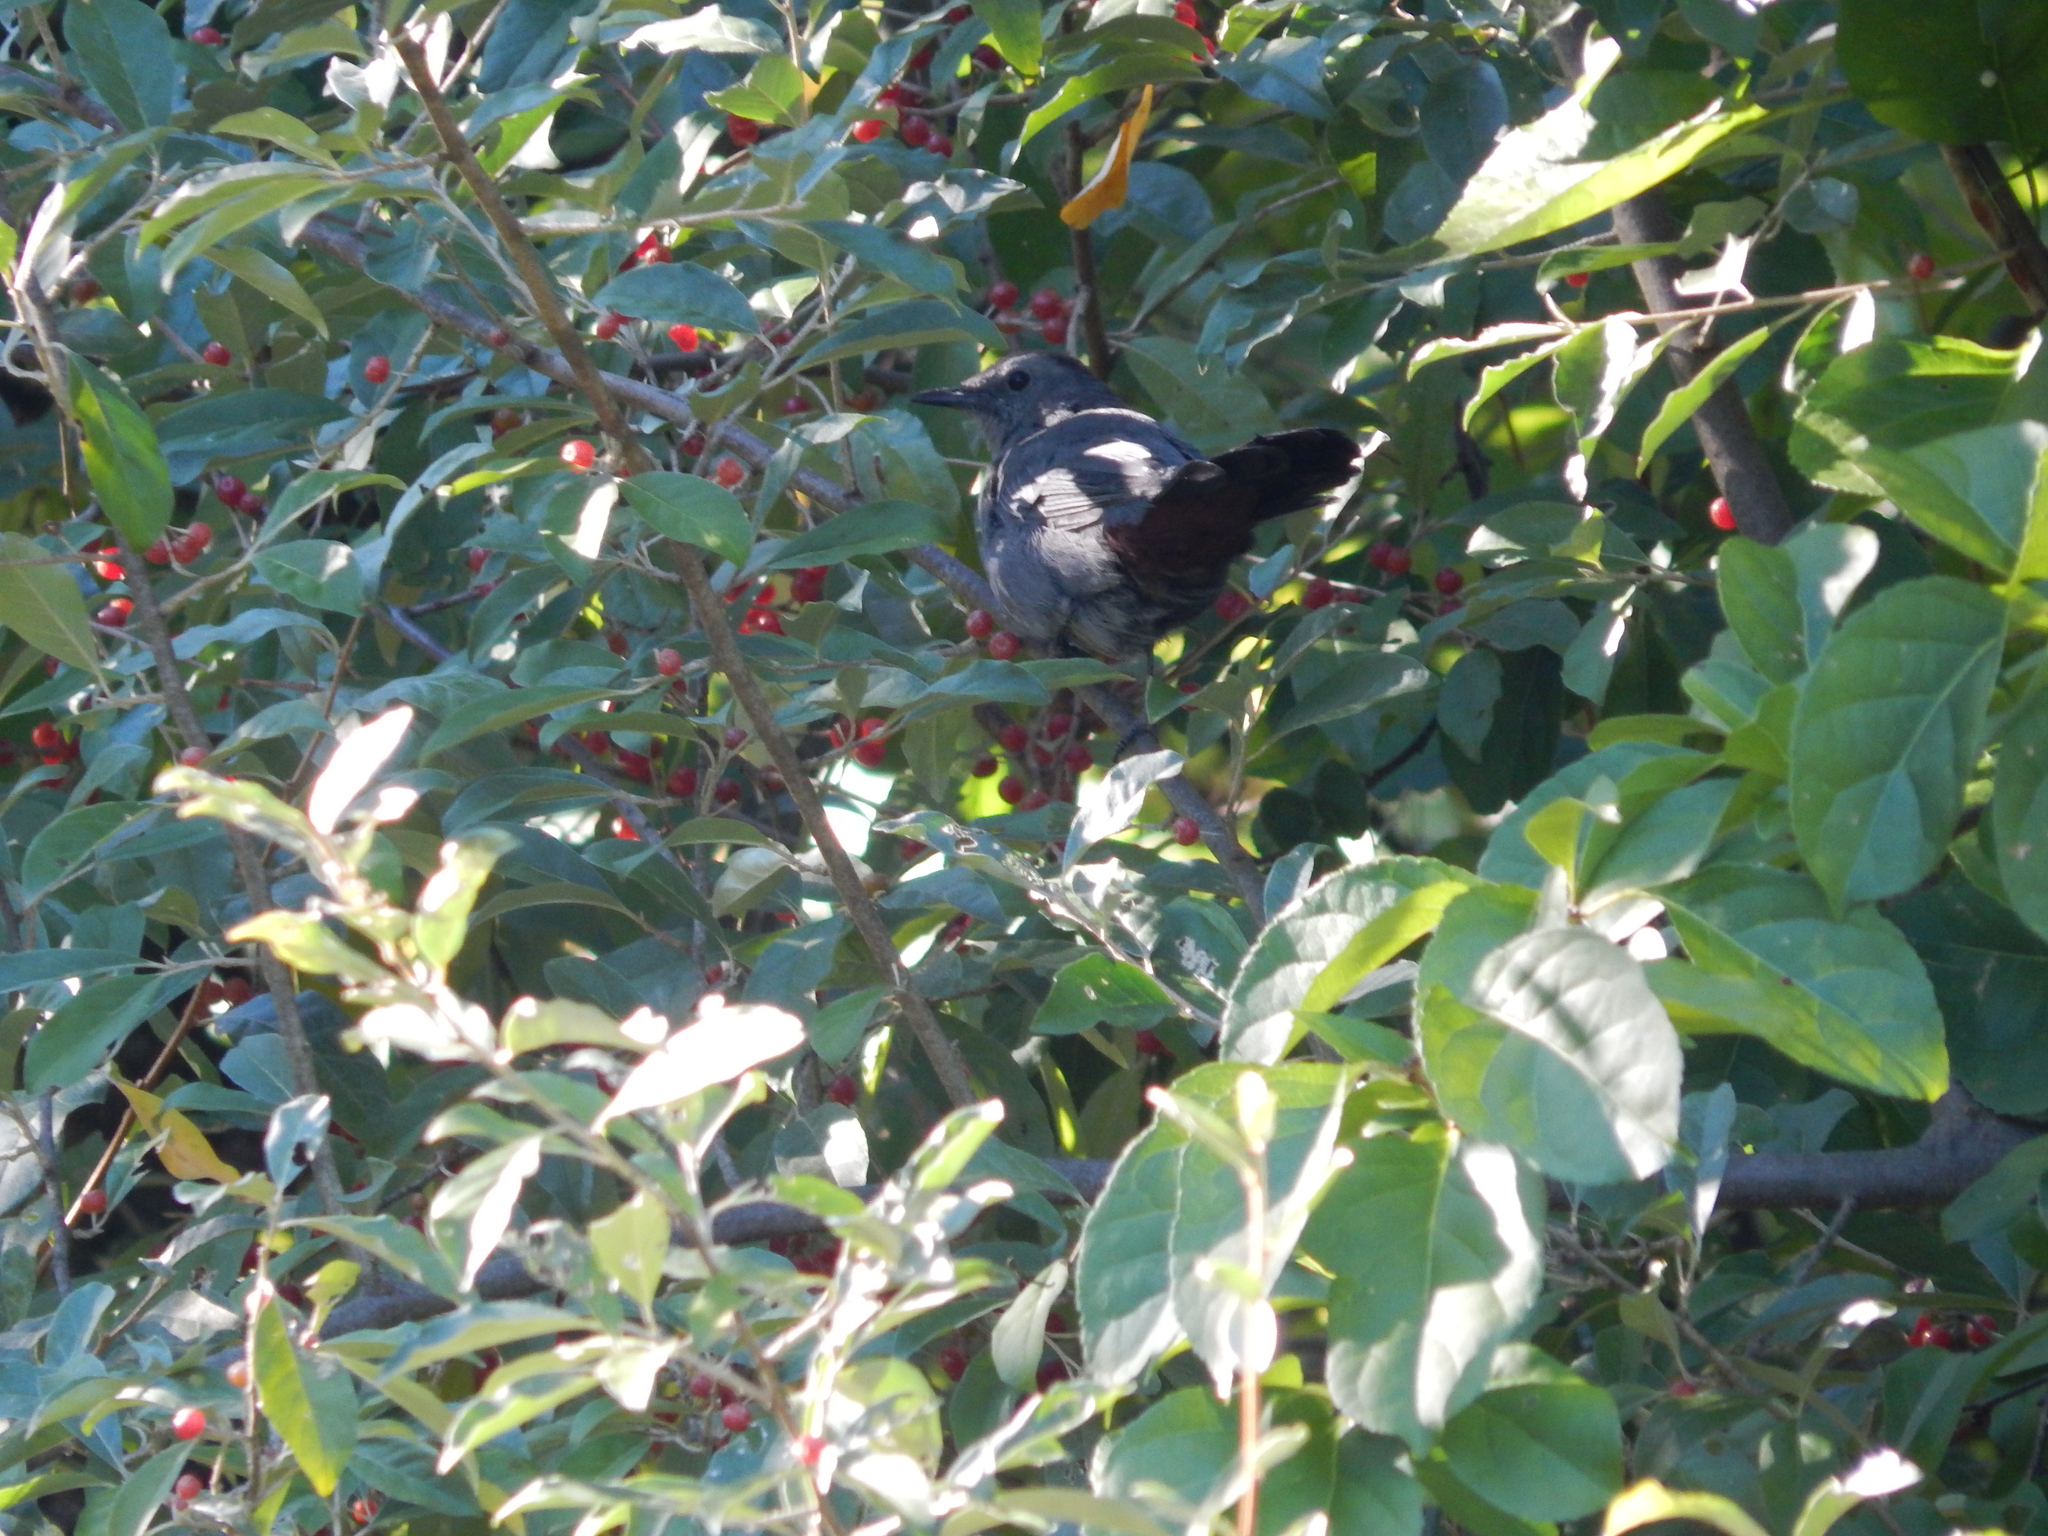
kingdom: Animalia
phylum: Chordata
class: Aves
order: Passeriformes
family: Mimidae
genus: Dumetella
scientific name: Dumetella carolinensis
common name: Gray catbird
